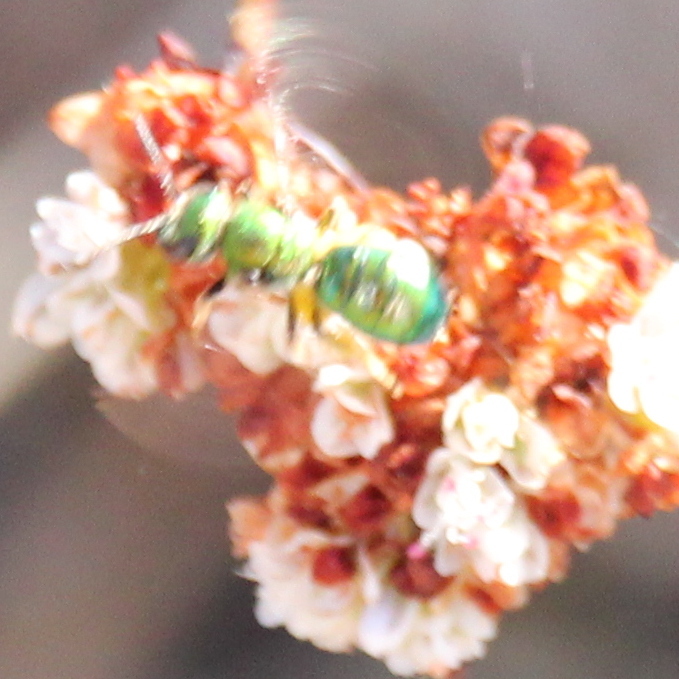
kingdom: Animalia
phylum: Arthropoda
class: Insecta
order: Hymenoptera
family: Halictidae
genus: Augochlorella
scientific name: Augochlorella pomoniella
